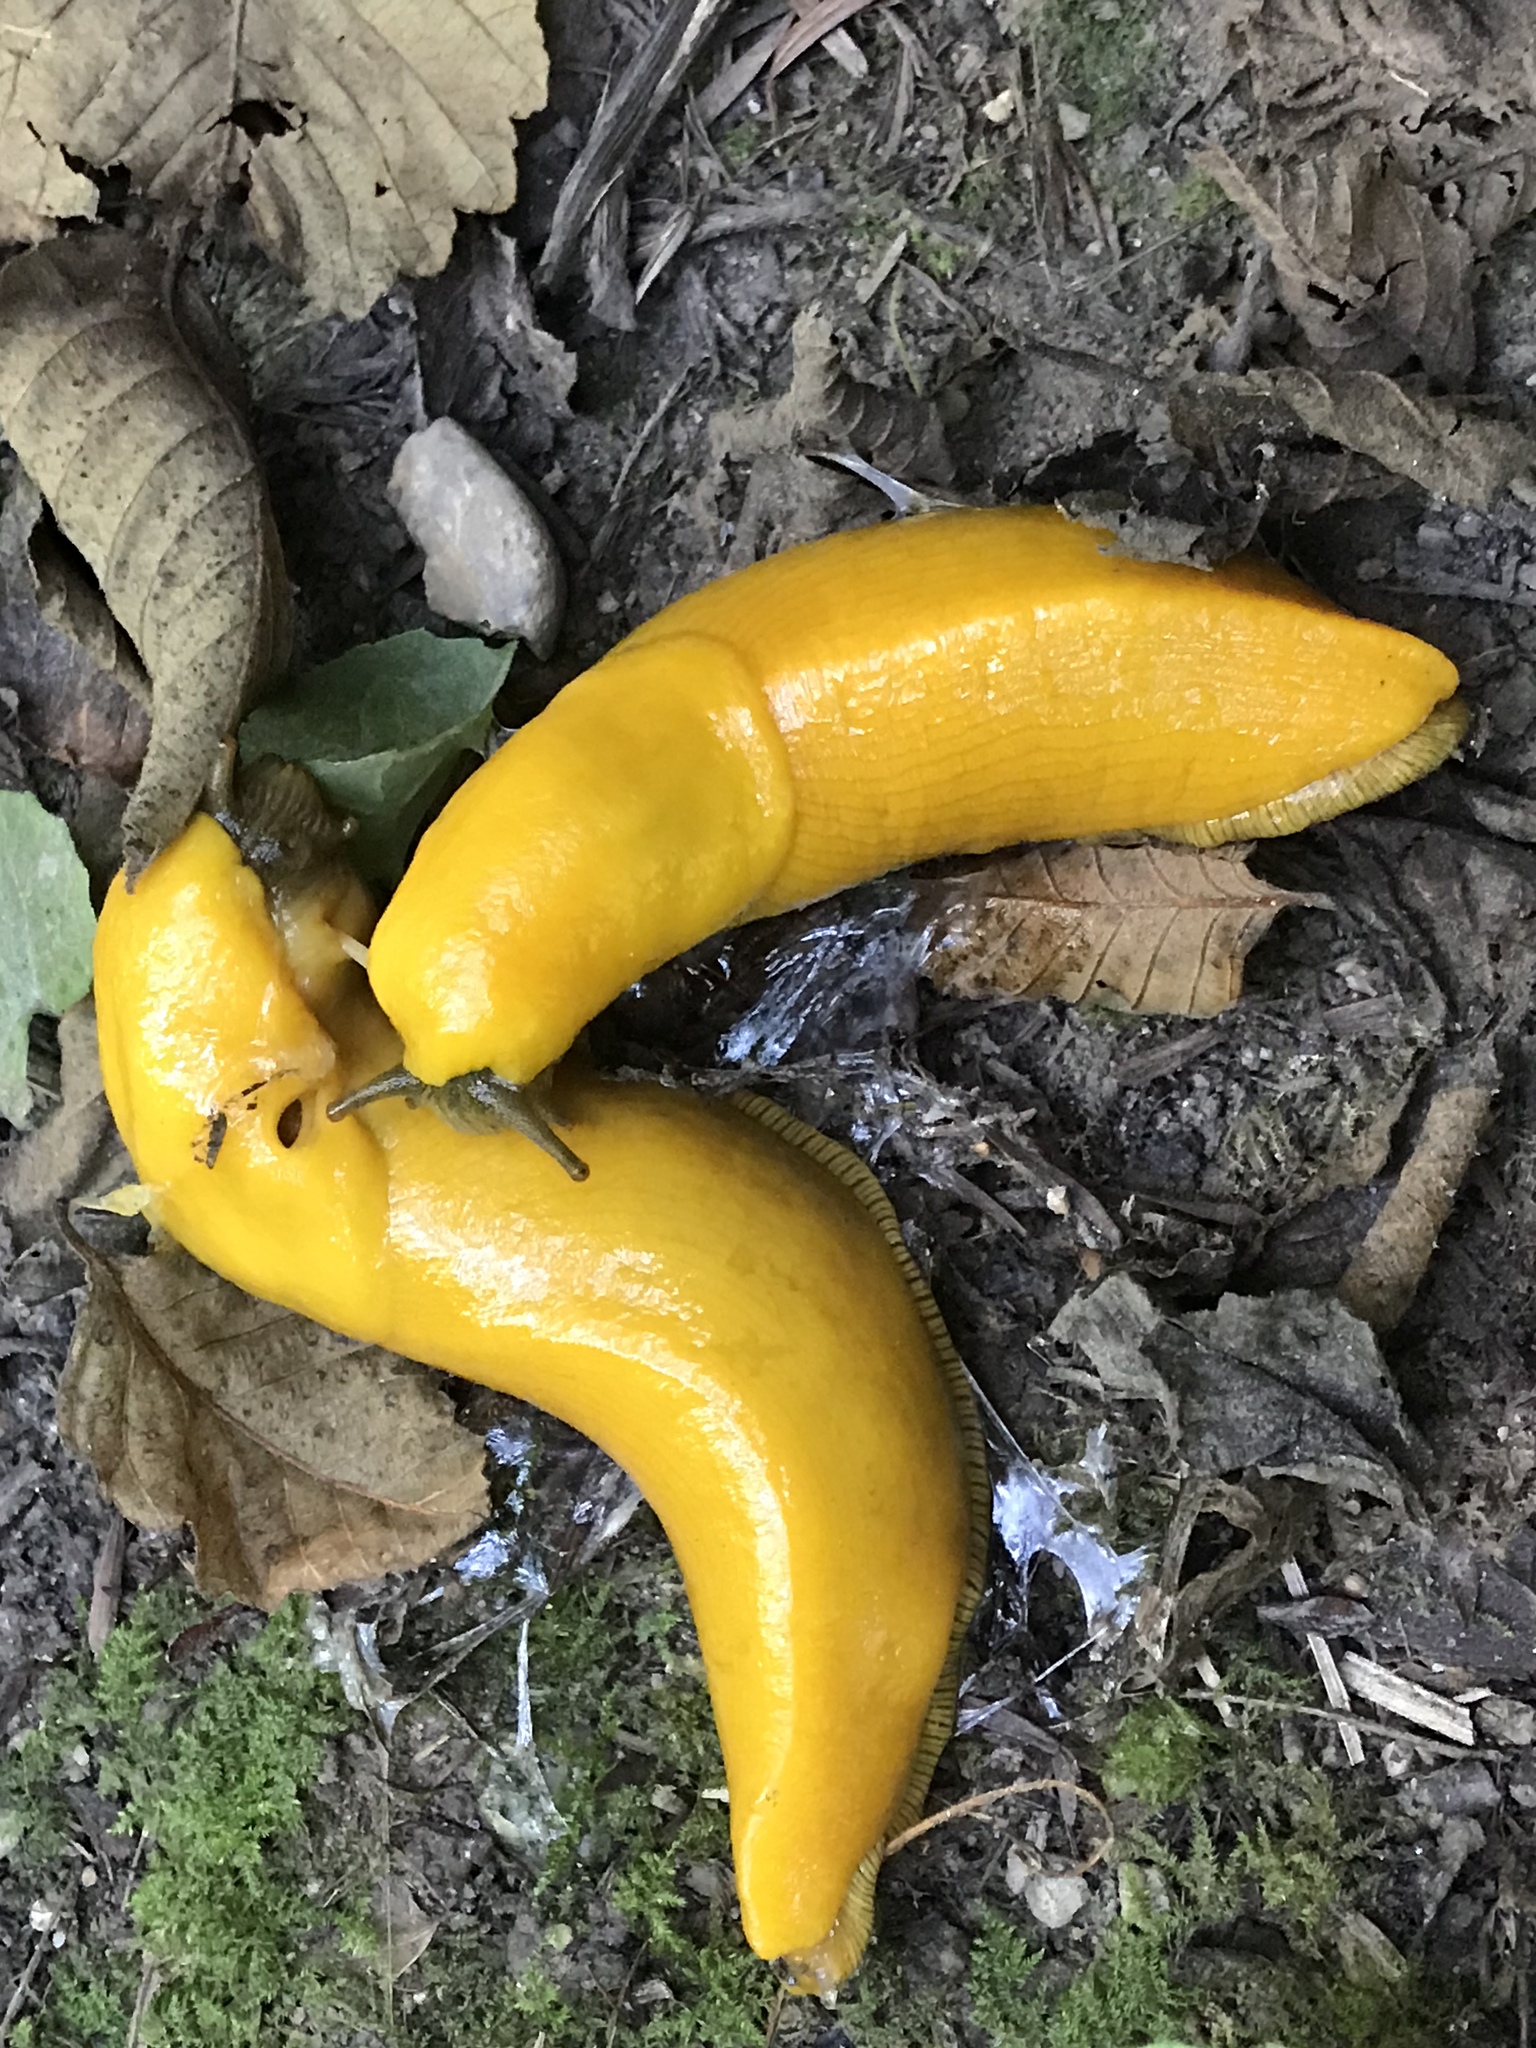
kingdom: Animalia
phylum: Mollusca
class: Gastropoda
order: Stylommatophora
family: Ariolimacidae
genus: Ariolimax
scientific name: Ariolimax californicus
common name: California banana slug
